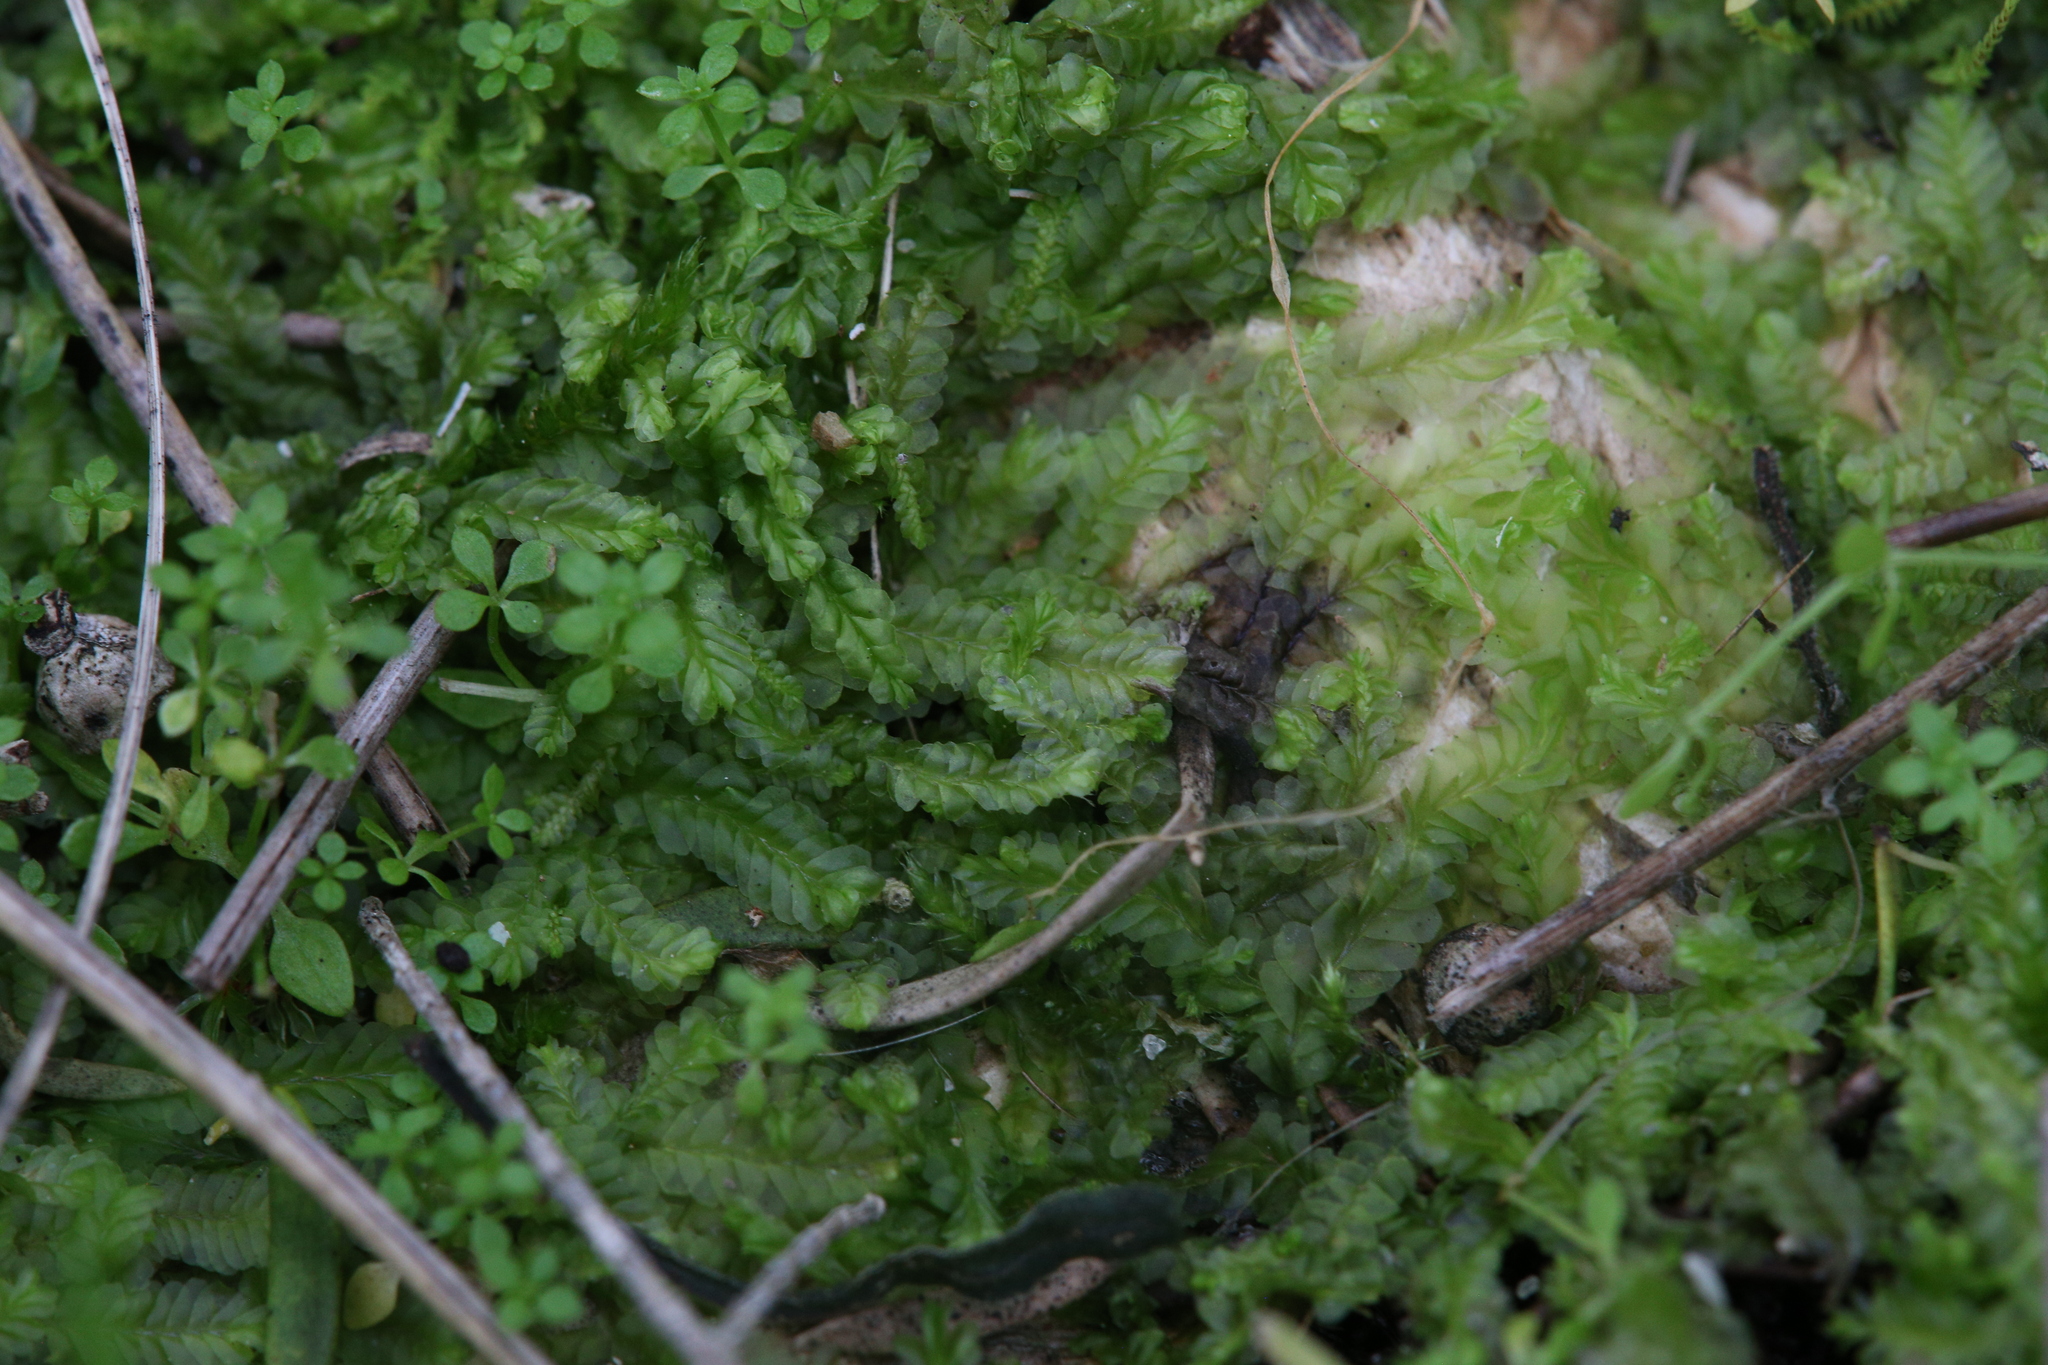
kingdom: Plantae
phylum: Marchantiophyta
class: Jungermanniopsida
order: Jungermanniales
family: Lophocoleaceae
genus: Lophocolea
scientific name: Lophocolea semiteres
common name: Southern crestwort
